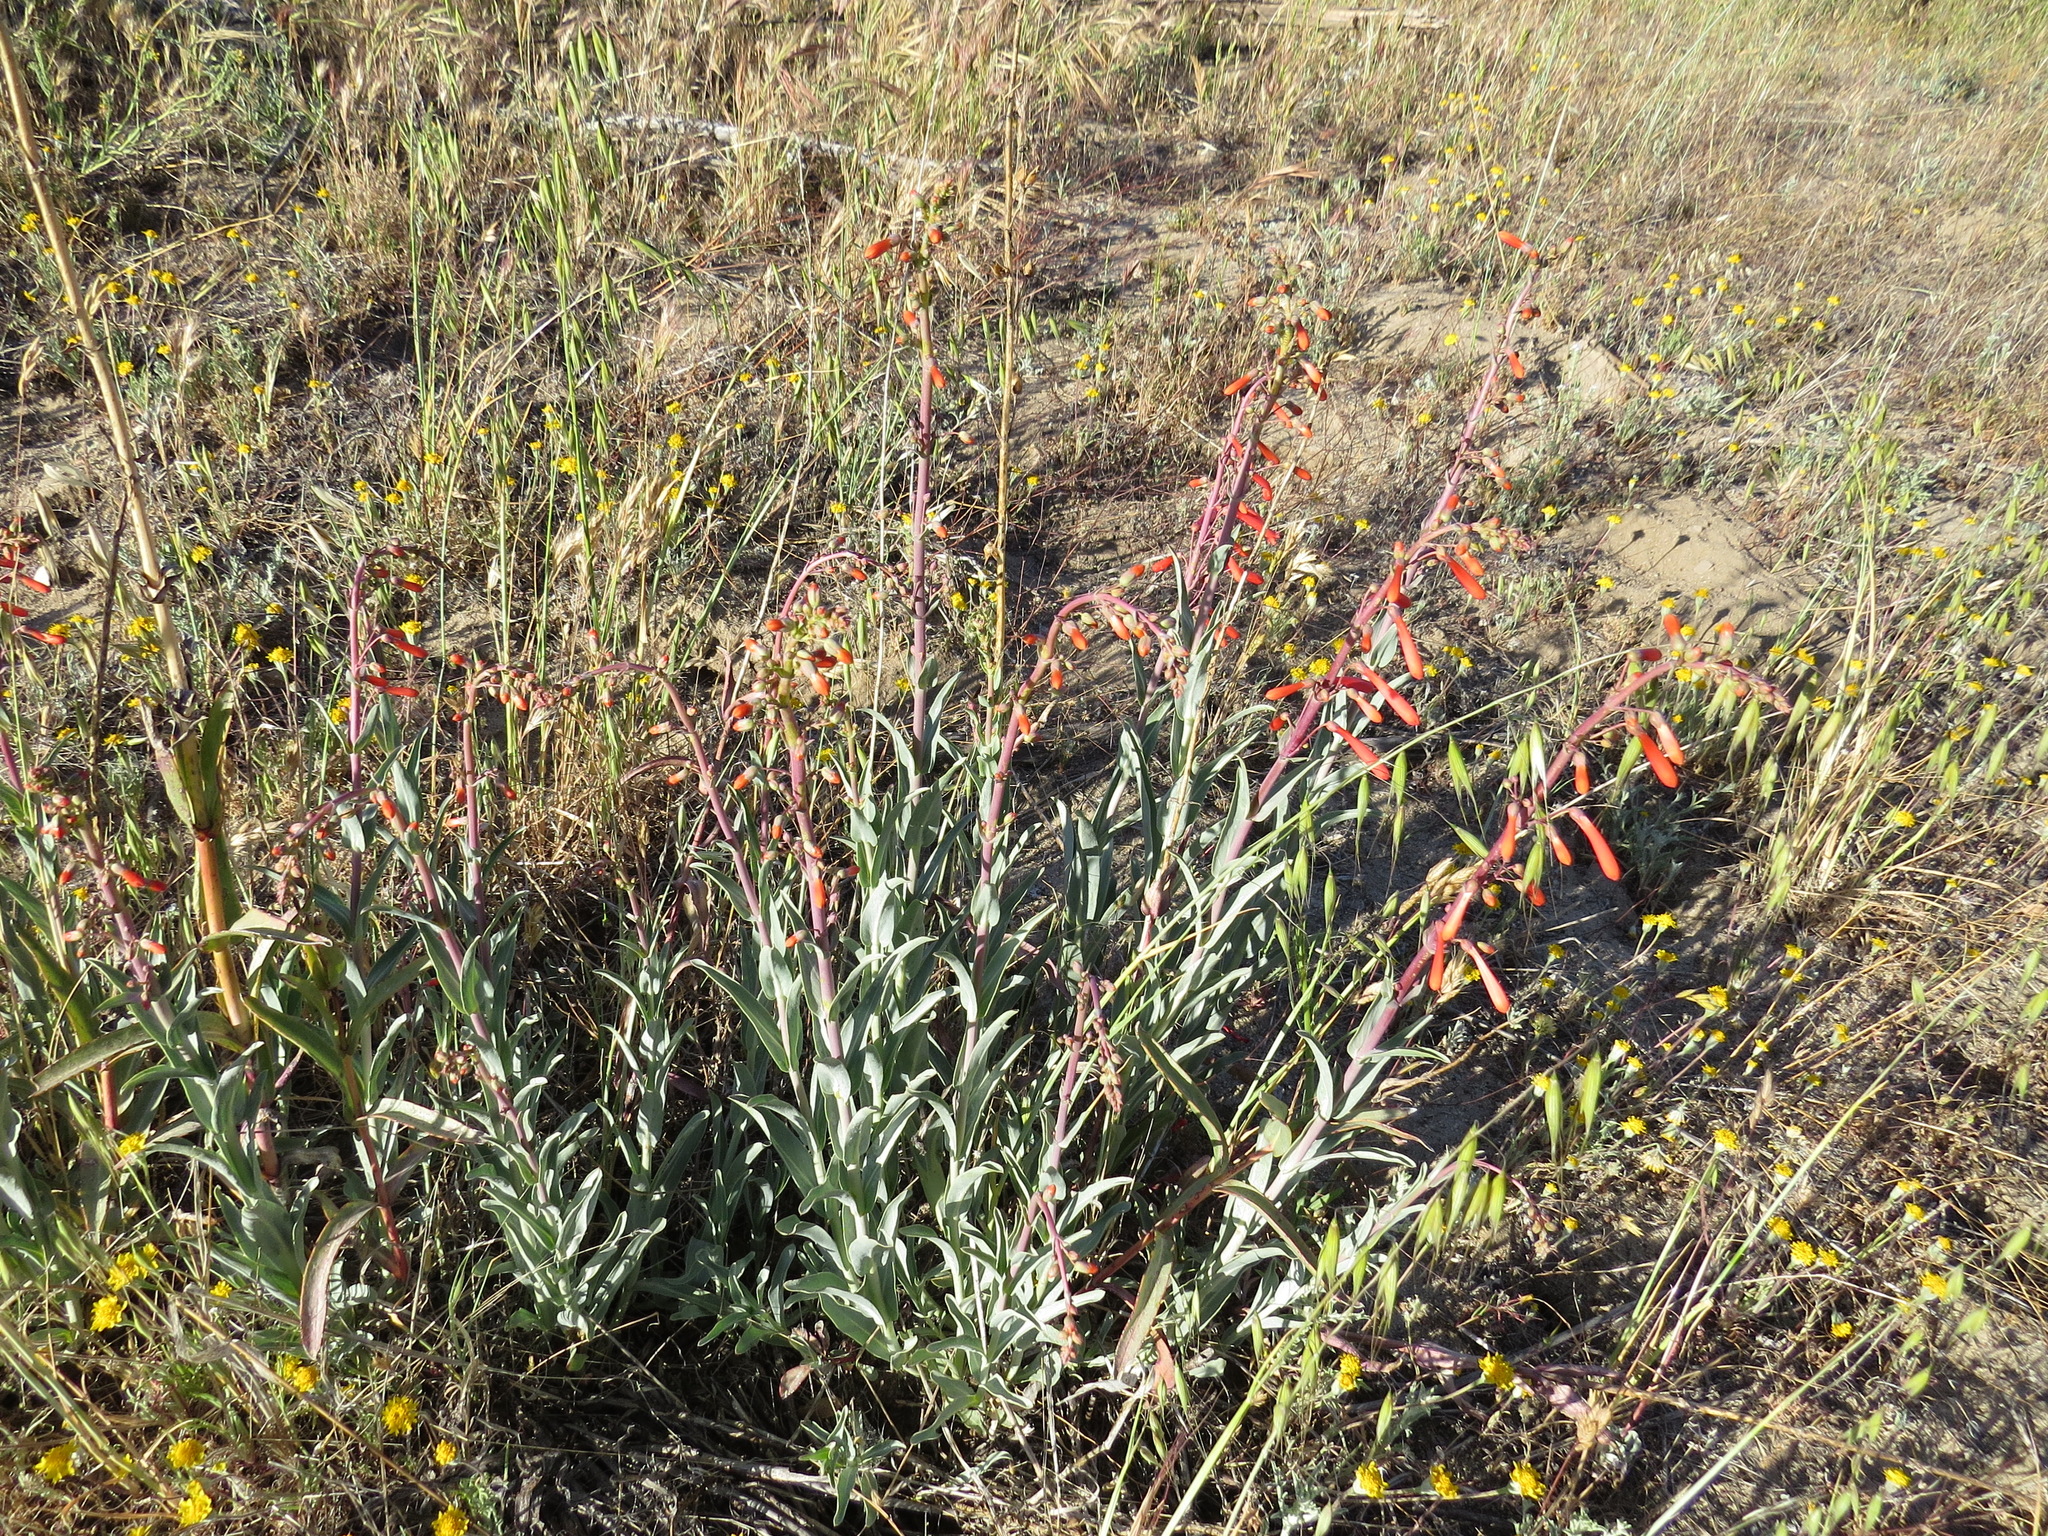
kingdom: Plantae
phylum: Tracheophyta
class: Magnoliopsida
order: Lamiales
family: Plantaginaceae
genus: Penstemon
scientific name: Penstemon centranthifolius
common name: Scarlet bugler
